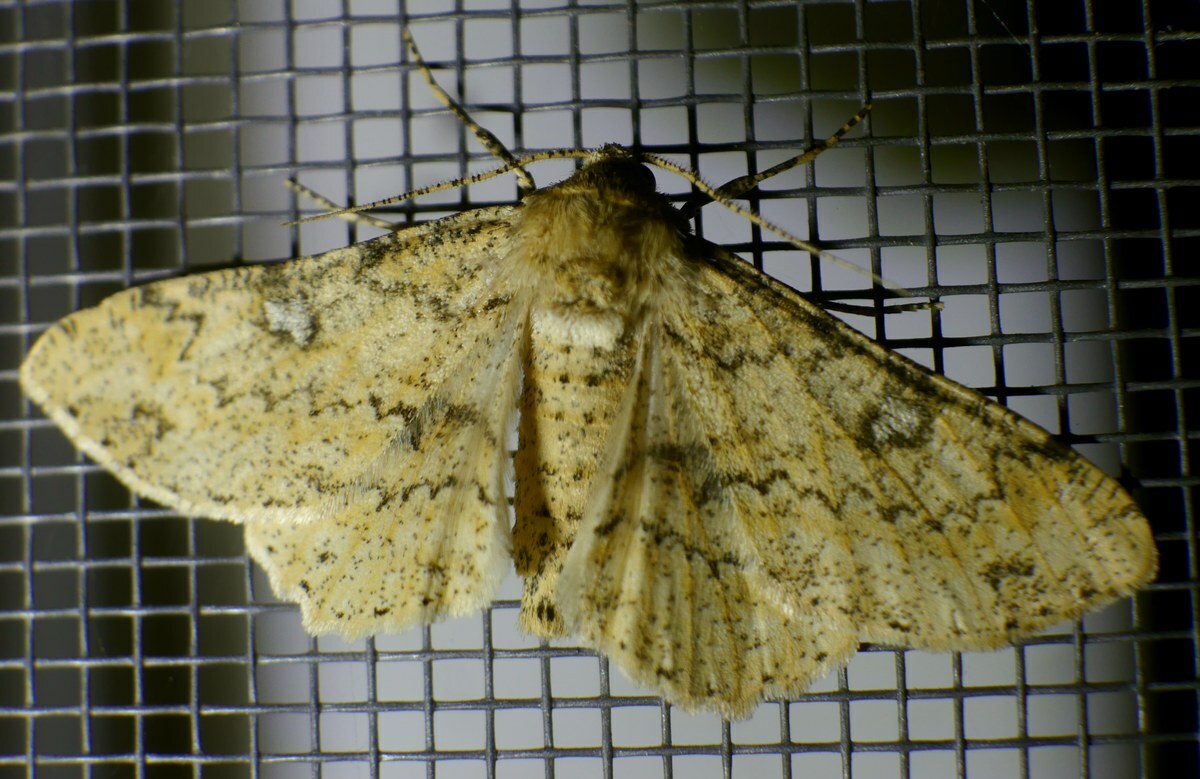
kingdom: Animalia
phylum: Arthropoda
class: Insecta
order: Lepidoptera
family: Geometridae
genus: Ascotis
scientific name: Ascotis selenaria
